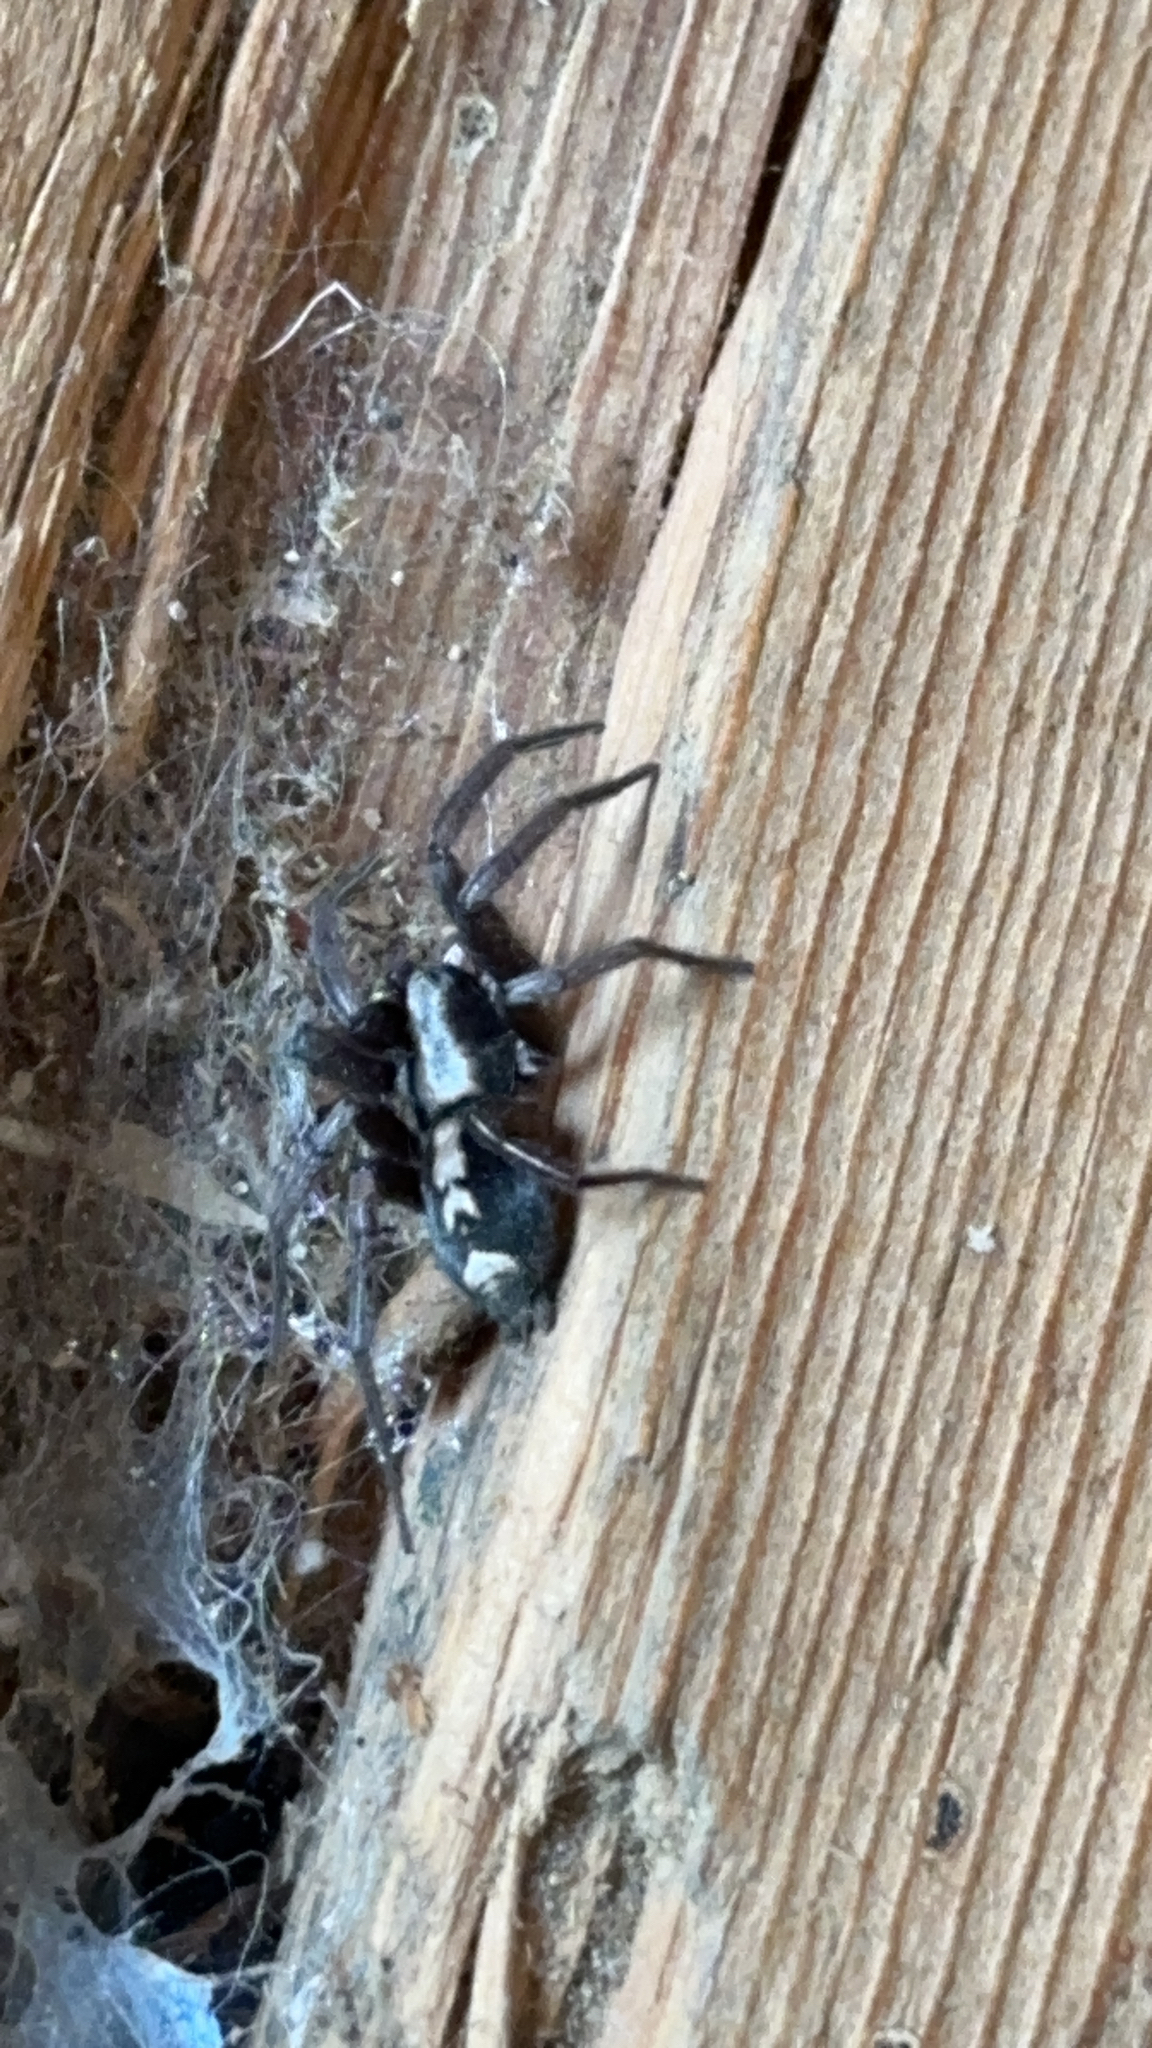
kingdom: Animalia
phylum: Arthropoda
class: Arachnida
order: Araneae
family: Gnaphosidae
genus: Herpyllus
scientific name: Herpyllus ecclesiasticus
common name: Eastern parson spider
